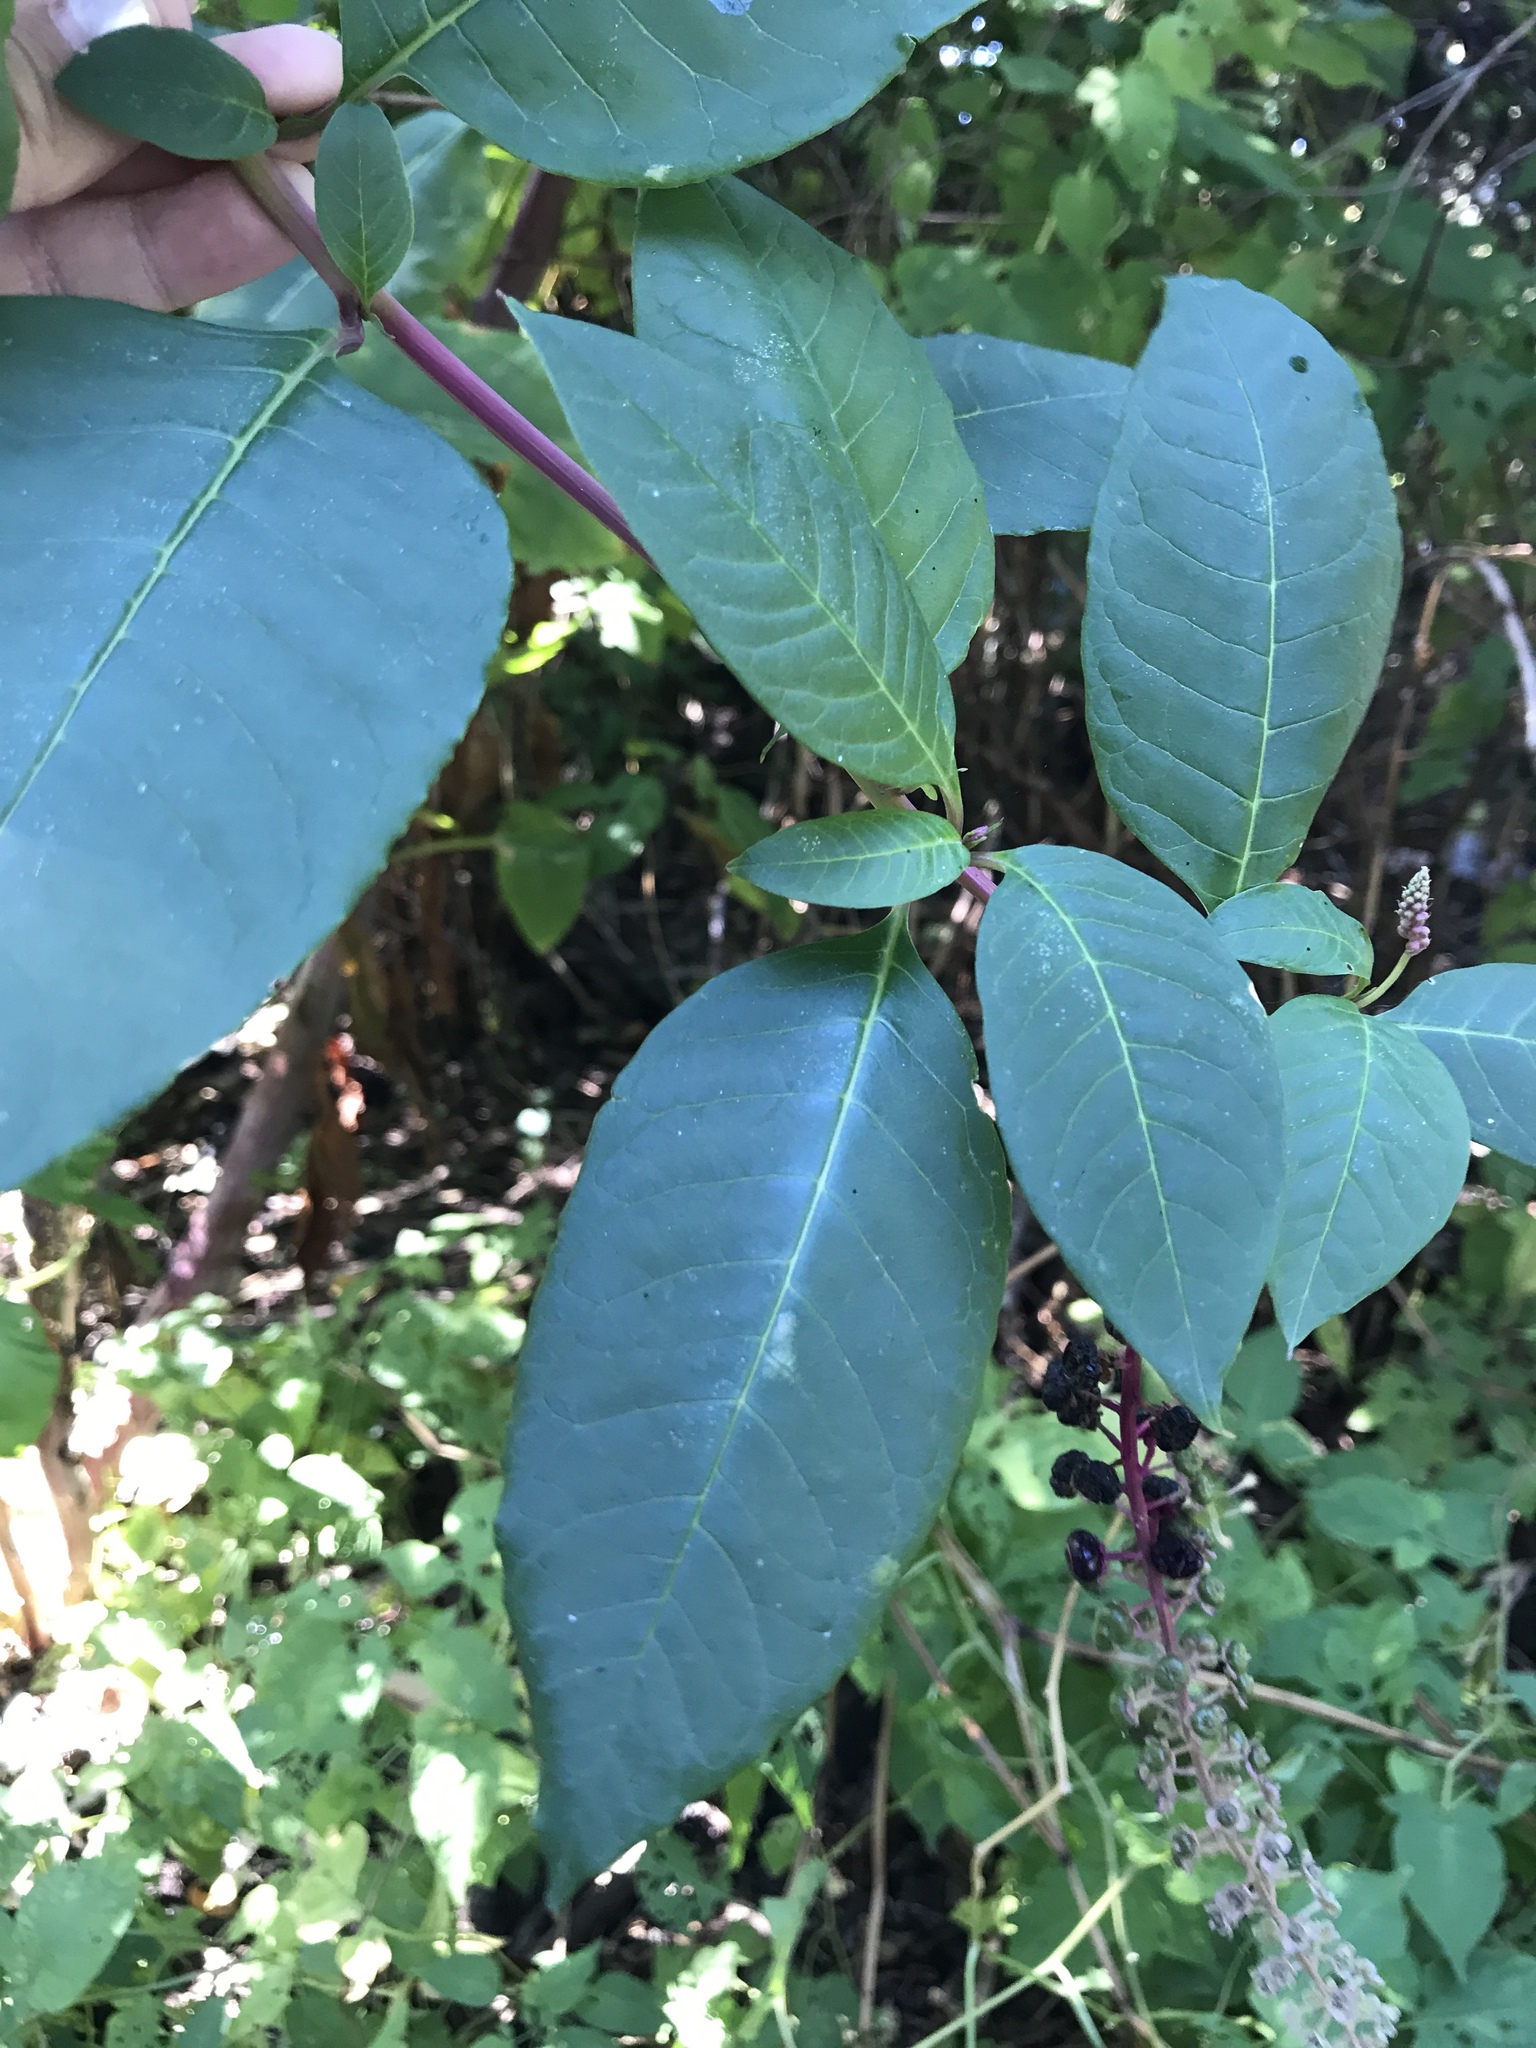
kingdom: Plantae
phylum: Tracheophyta
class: Magnoliopsida
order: Caryophyllales
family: Phytolaccaceae
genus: Phytolacca
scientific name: Phytolacca americana
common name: American pokeweed
